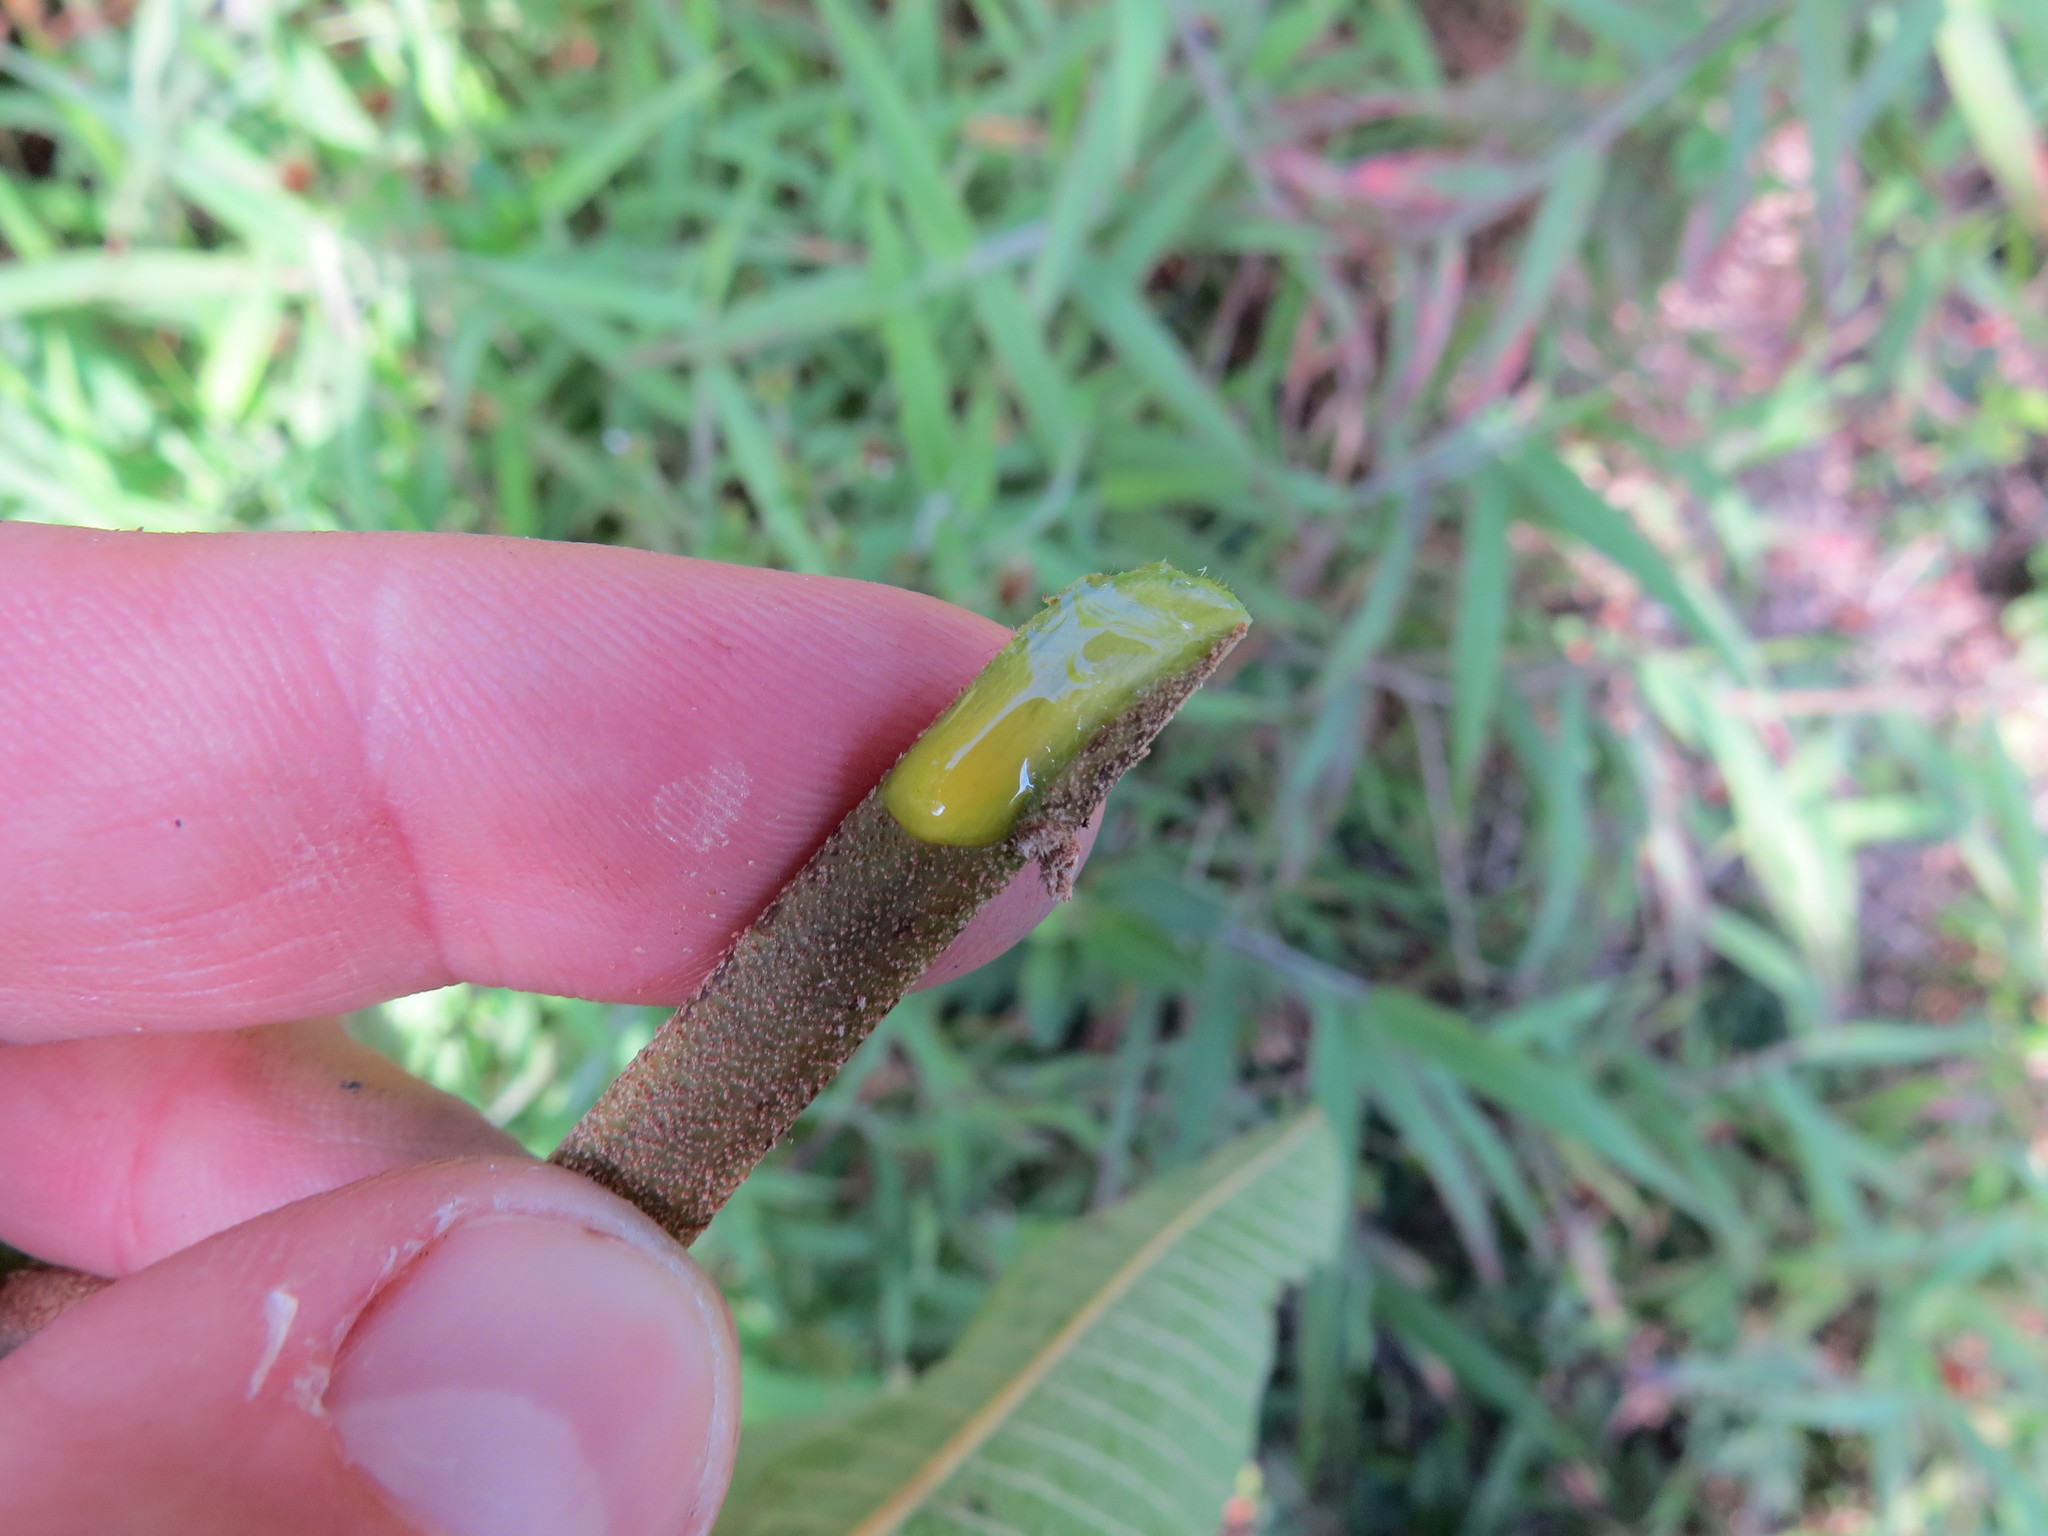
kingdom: Plantae
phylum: Tracheophyta
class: Magnoliopsida
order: Malpighiales
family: Euphorbiaceae
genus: Croton
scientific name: Croton organensis
